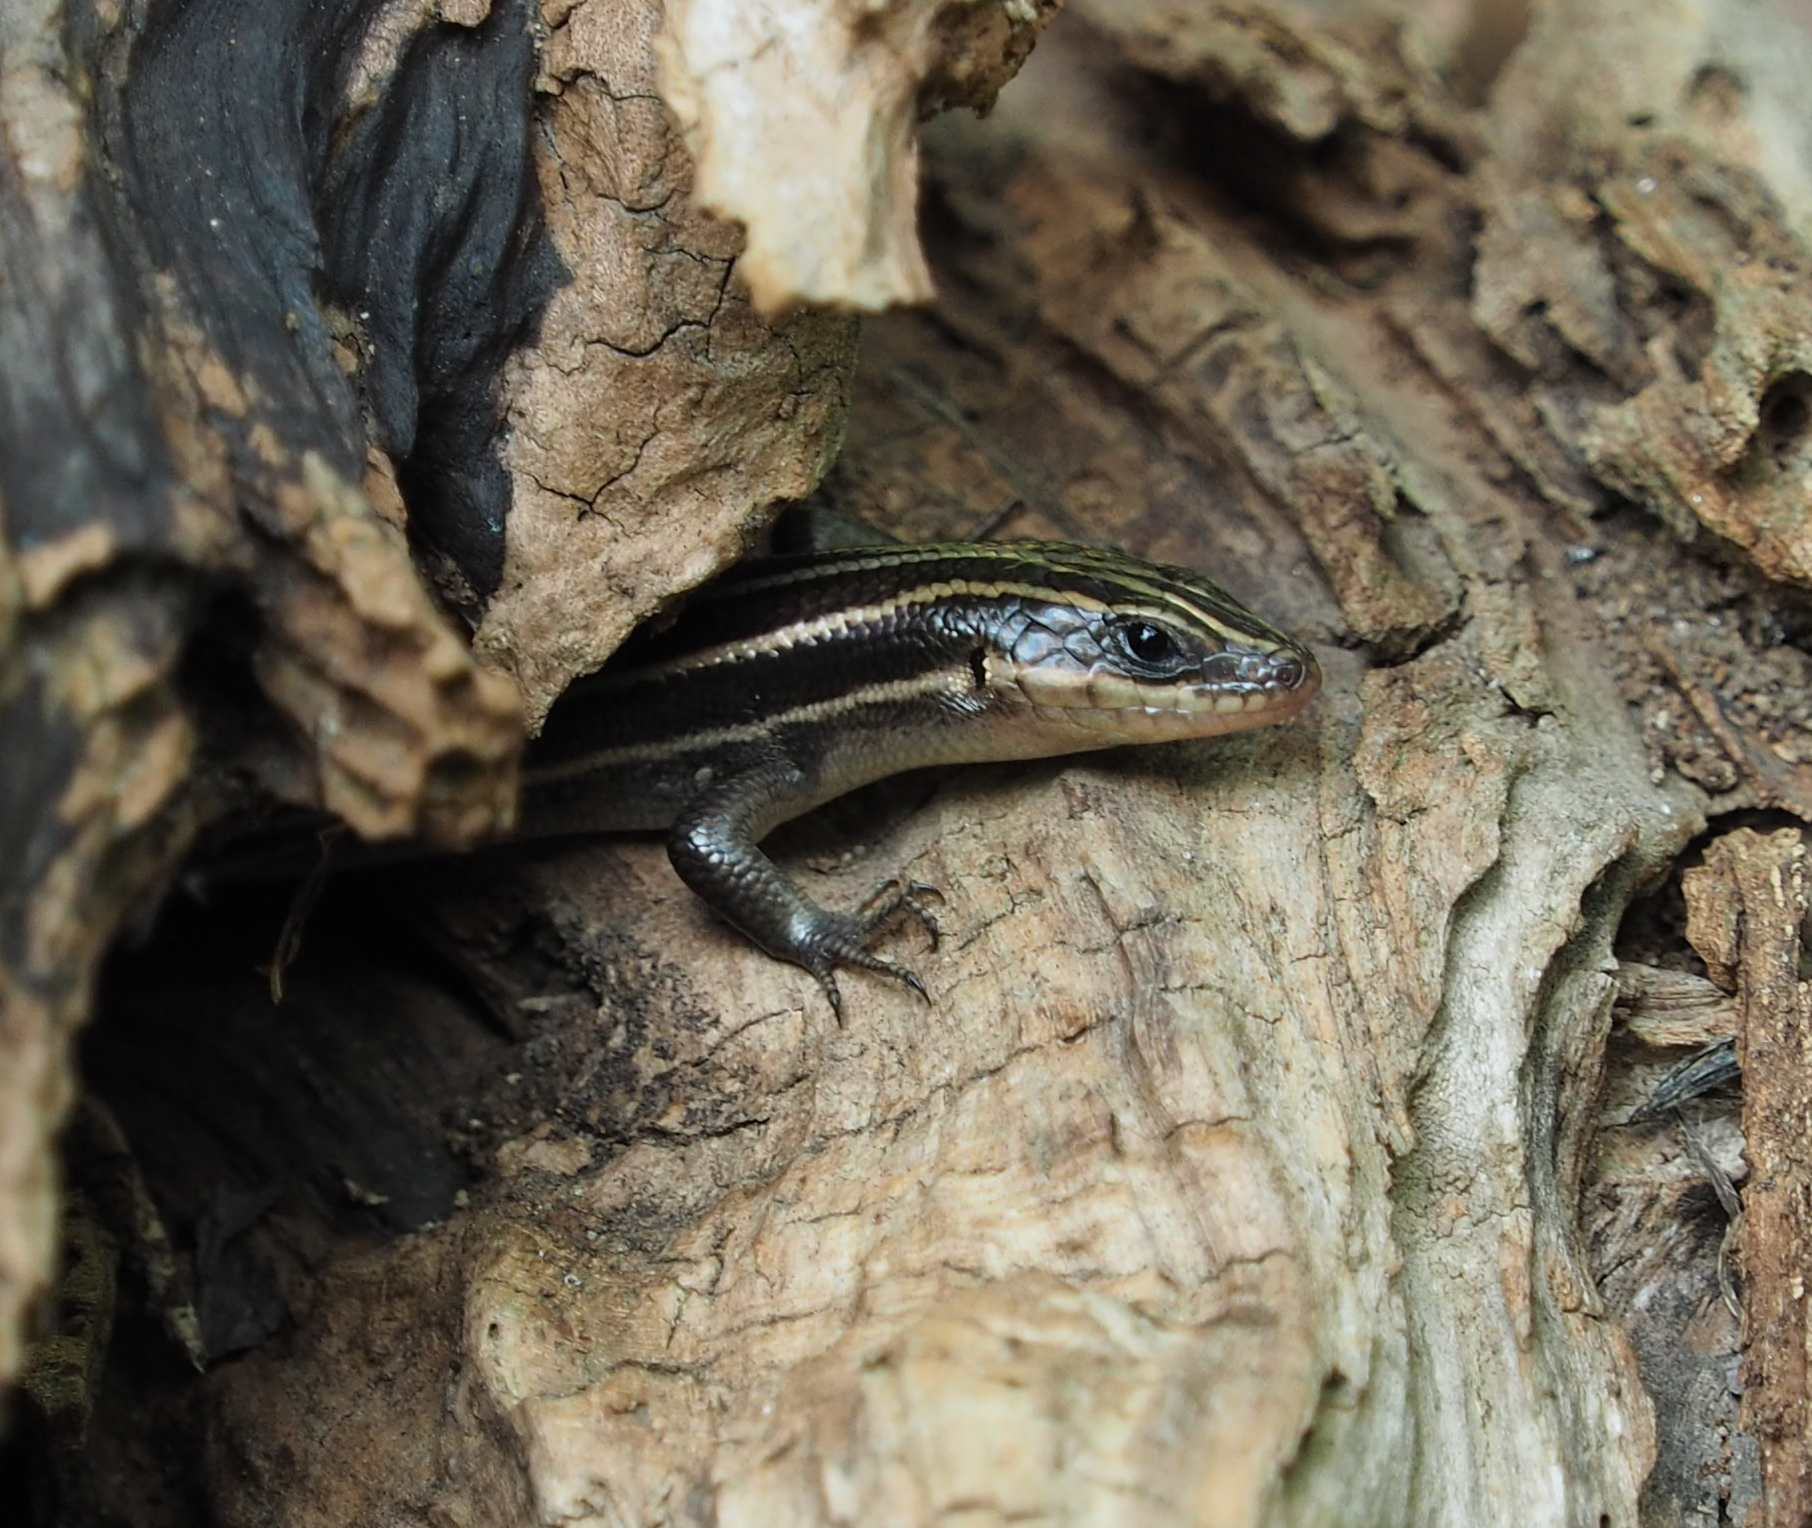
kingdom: Animalia
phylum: Chordata
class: Squamata
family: Scincidae
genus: Plestiodon
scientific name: Plestiodon fasciatus
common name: Five-lined skink
